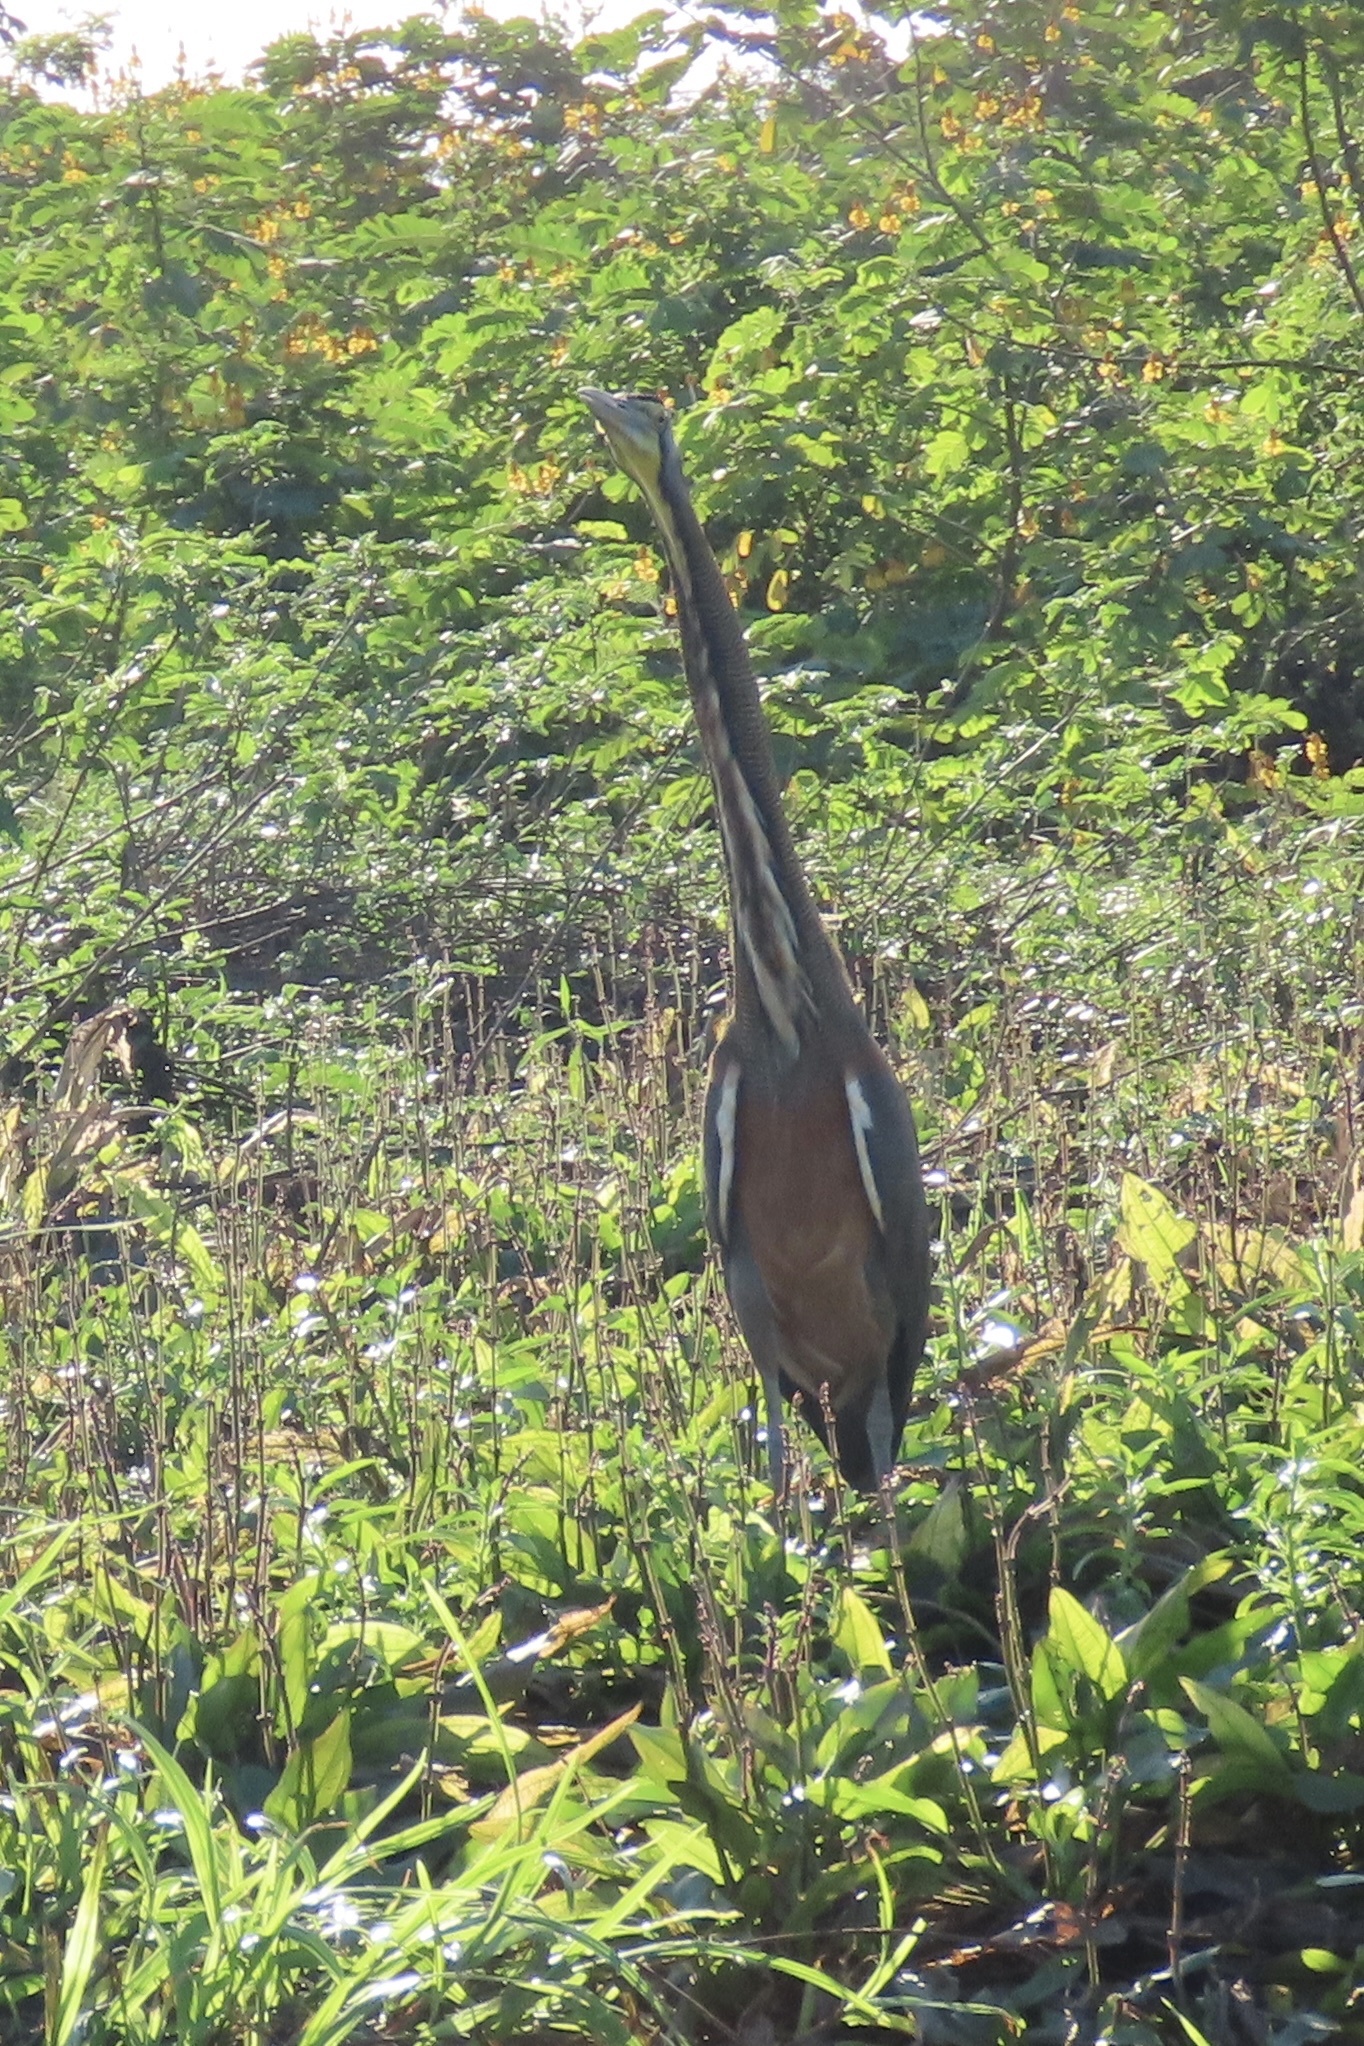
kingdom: Animalia
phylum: Chordata
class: Aves
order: Pelecaniformes
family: Ardeidae
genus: Tigrisoma
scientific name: Tigrisoma mexicanum
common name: Bare-throated tiger-heron
